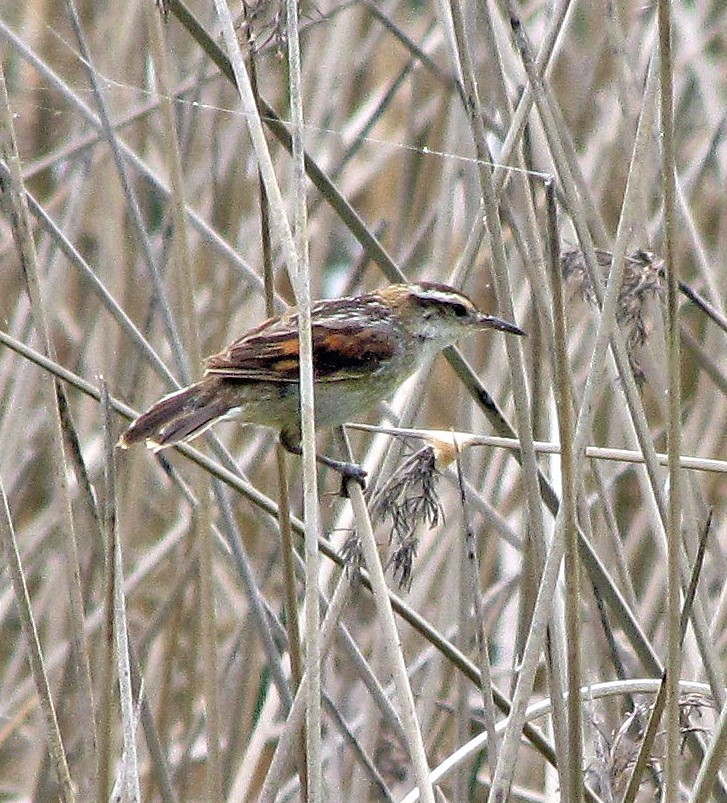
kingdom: Animalia
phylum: Chordata
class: Aves
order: Passeriformes
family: Furnariidae
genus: Phleocryptes
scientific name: Phleocryptes melanops
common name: Wren-like rushbird
